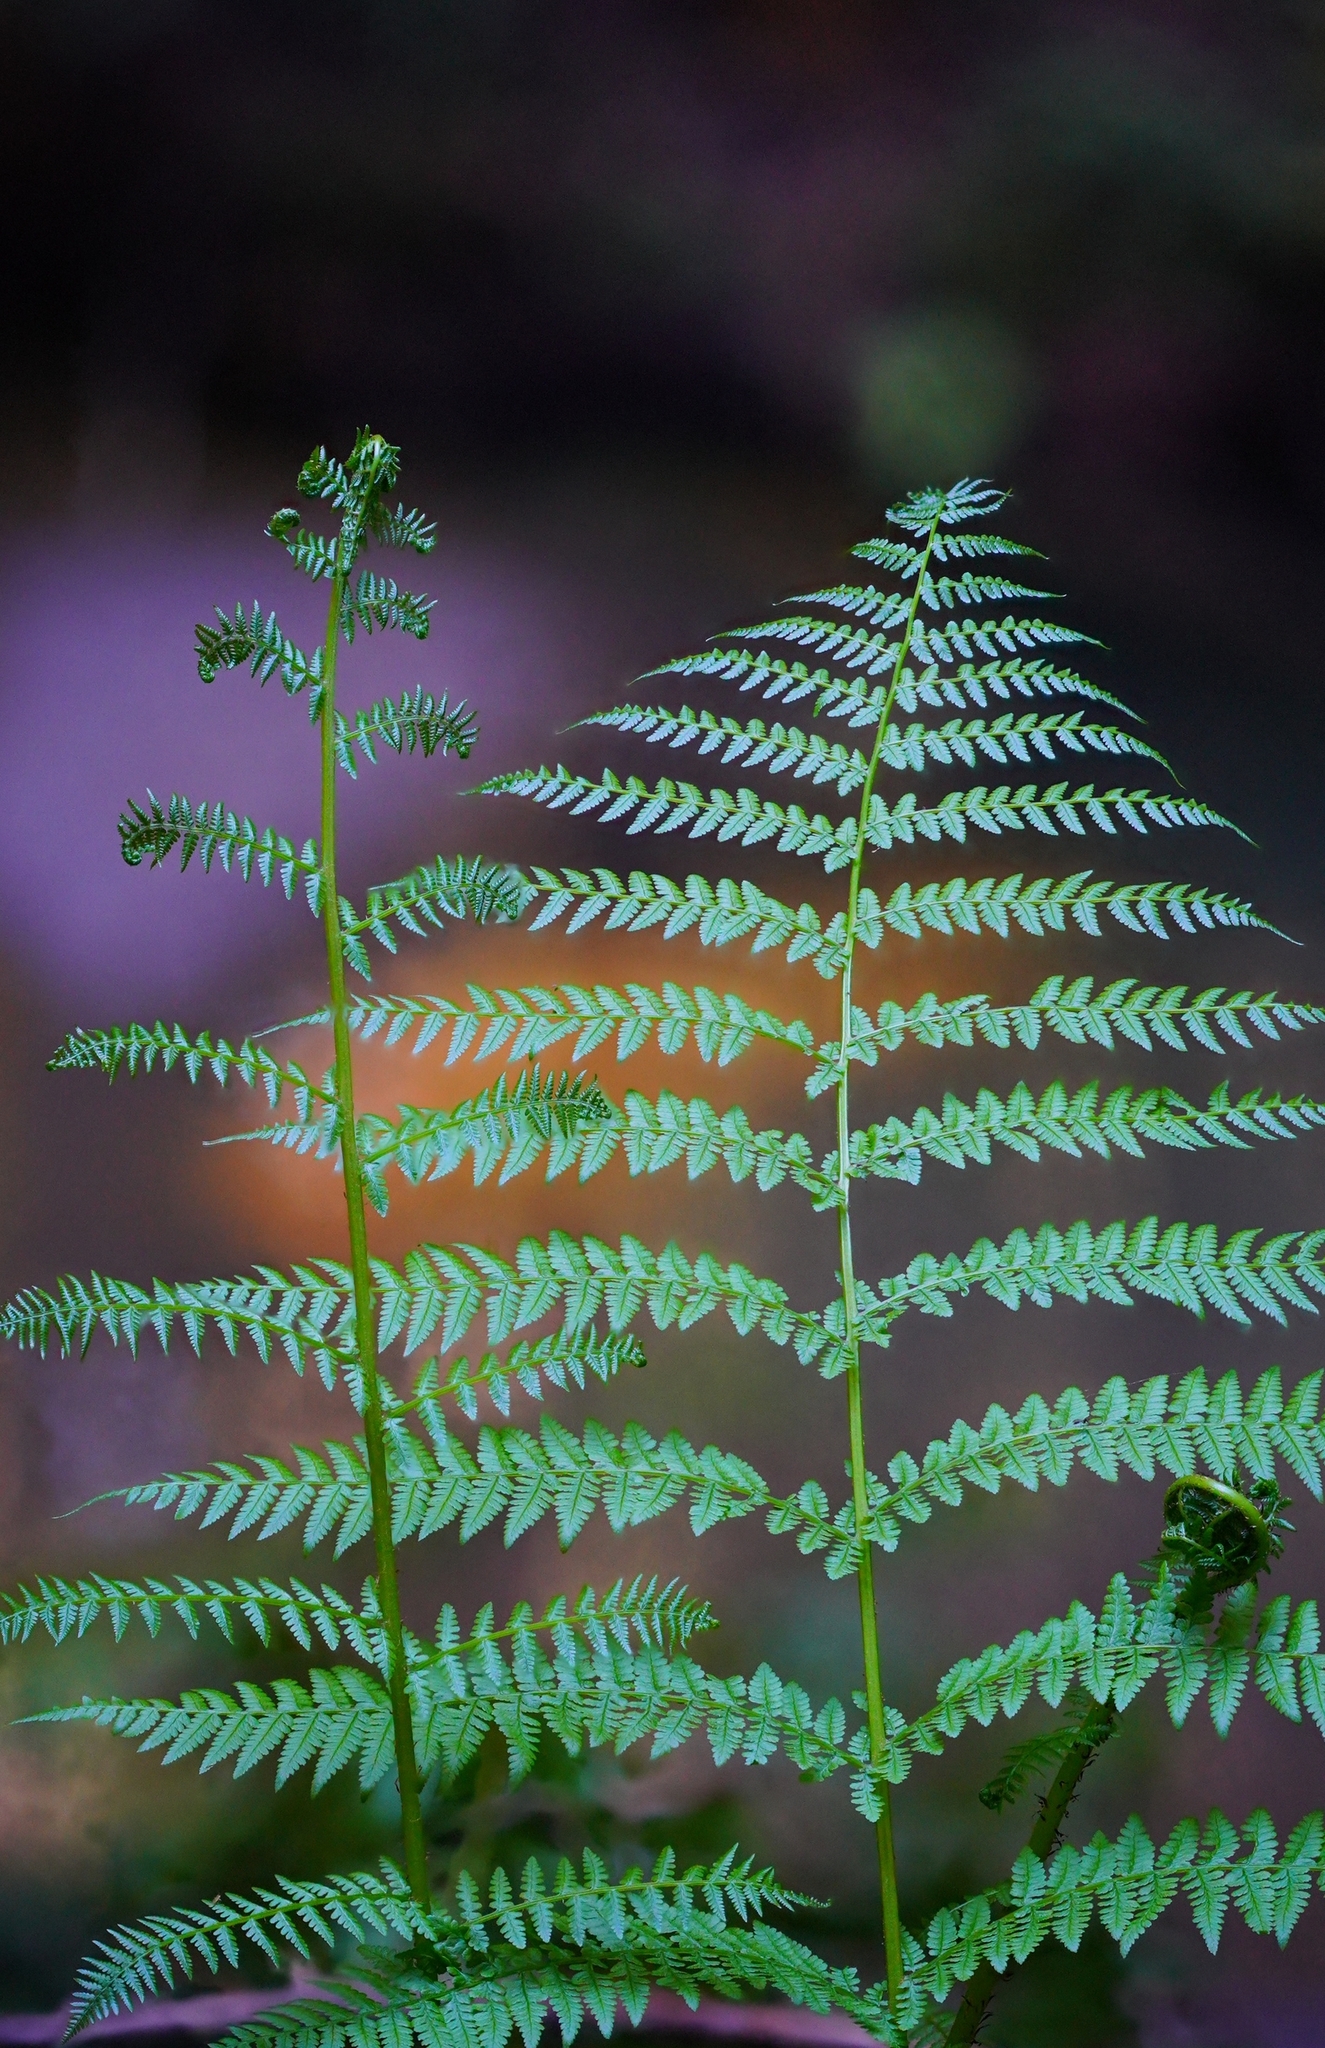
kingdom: Plantae
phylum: Tracheophyta
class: Polypodiopsida
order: Polypodiales
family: Athyriaceae
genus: Athyrium
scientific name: Athyrium filix-femina
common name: Lady fern
